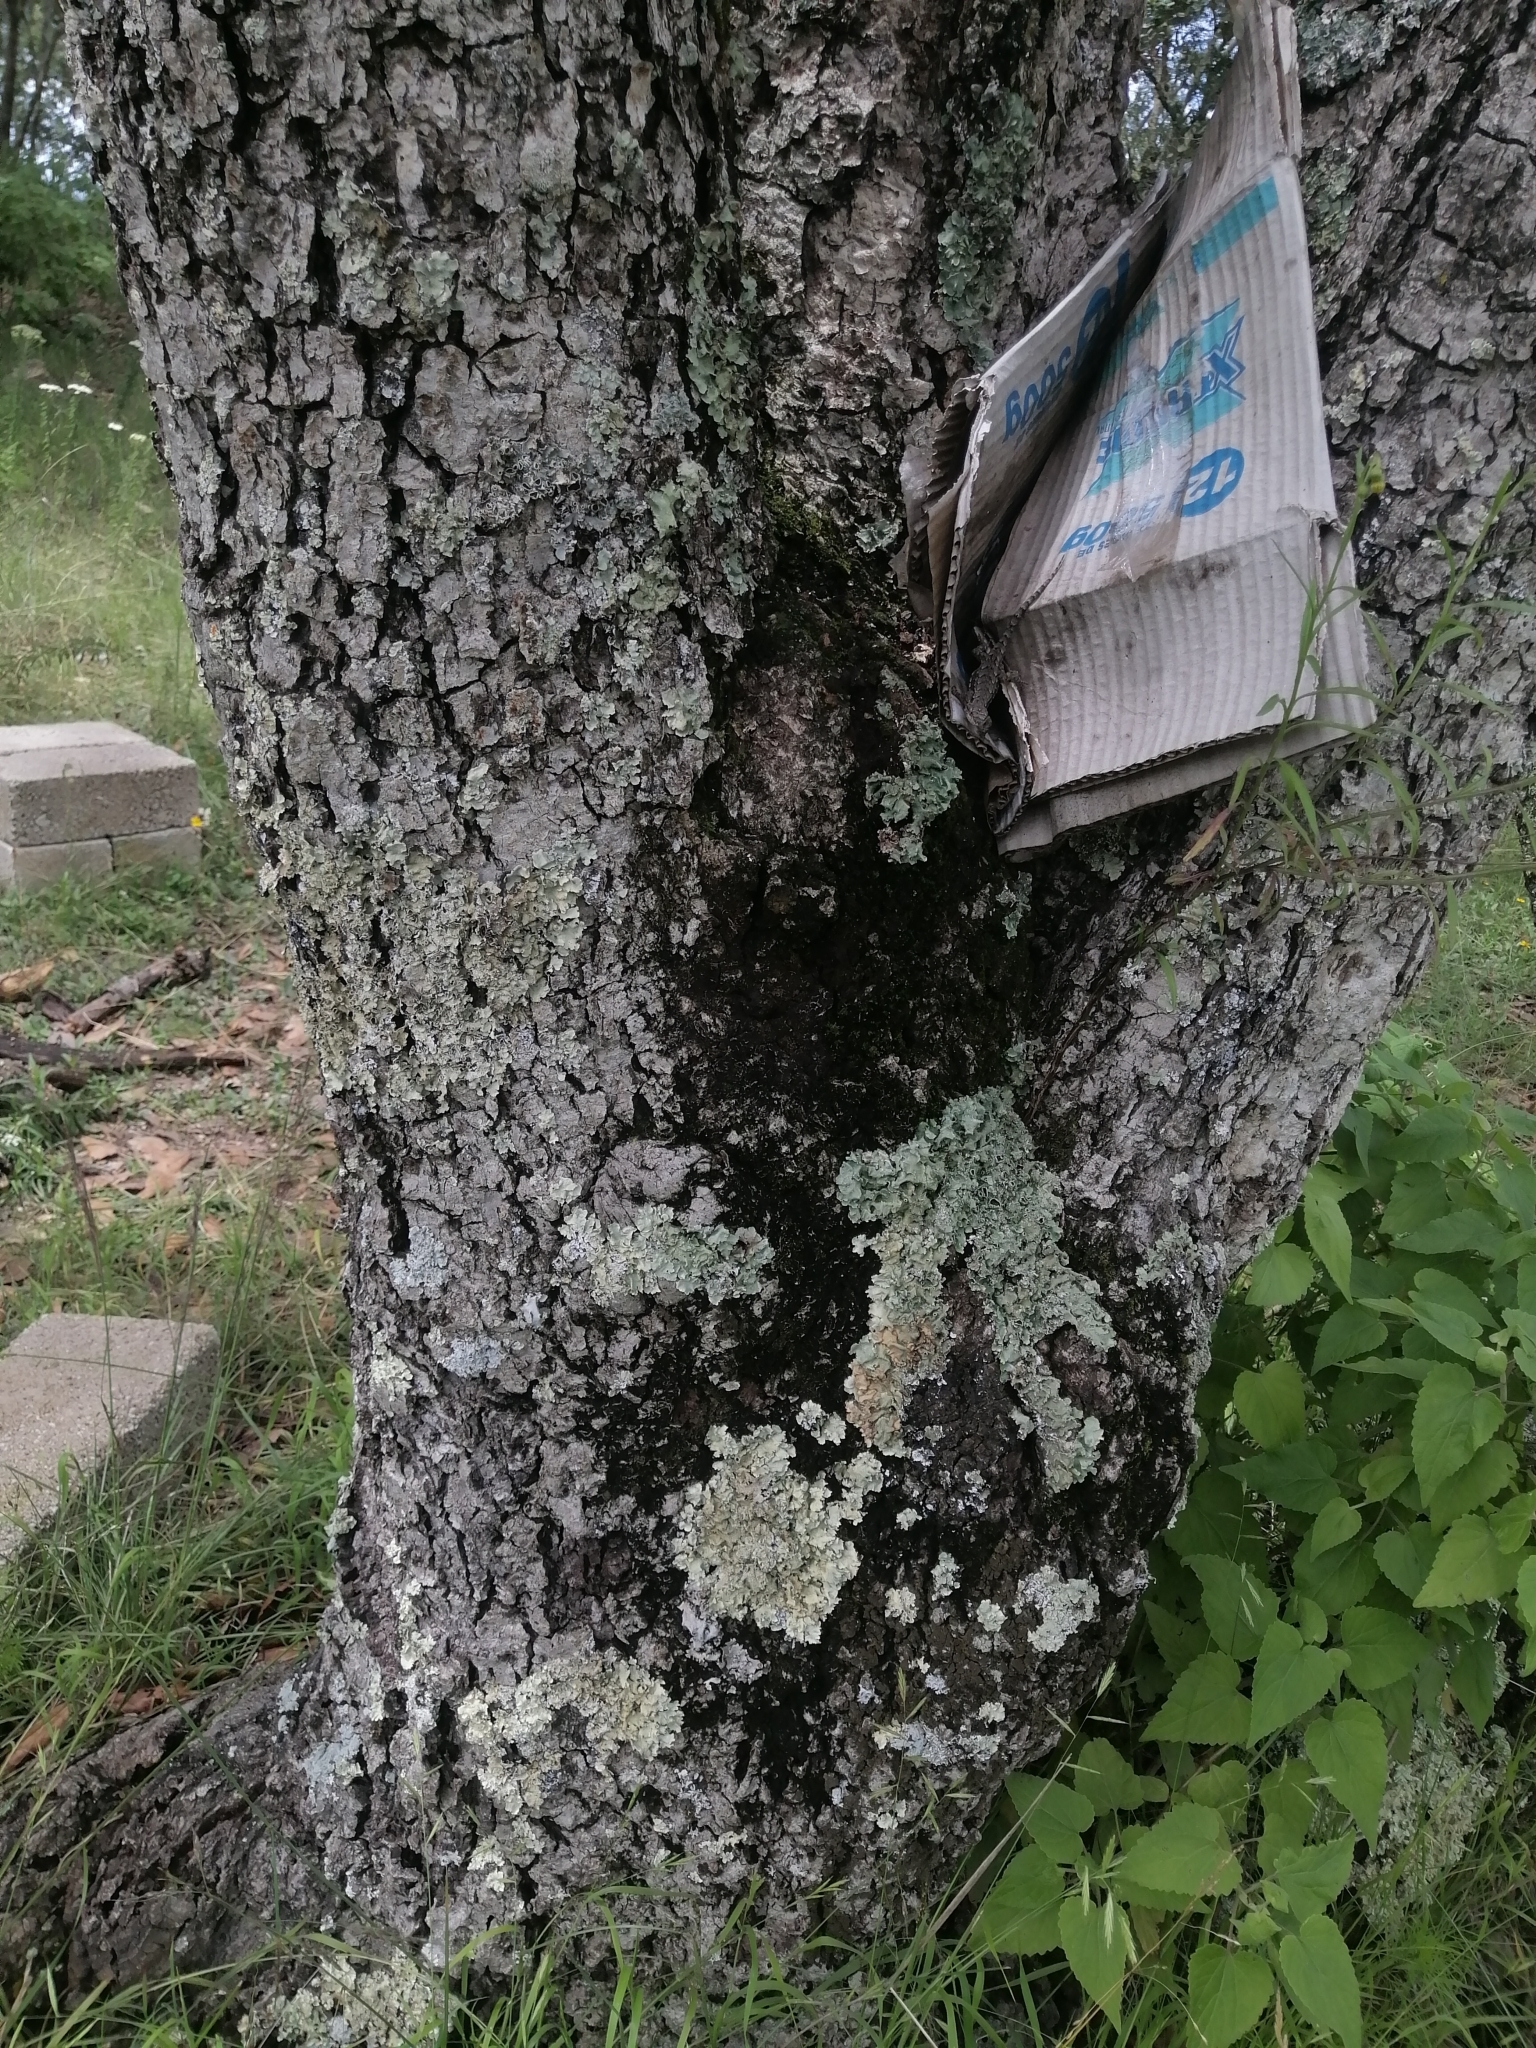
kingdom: Plantae
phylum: Tracheophyta
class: Magnoliopsida
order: Fagales
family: Fagaceae
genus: Quercus
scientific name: Quercus rugosa
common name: Netleaf oak
